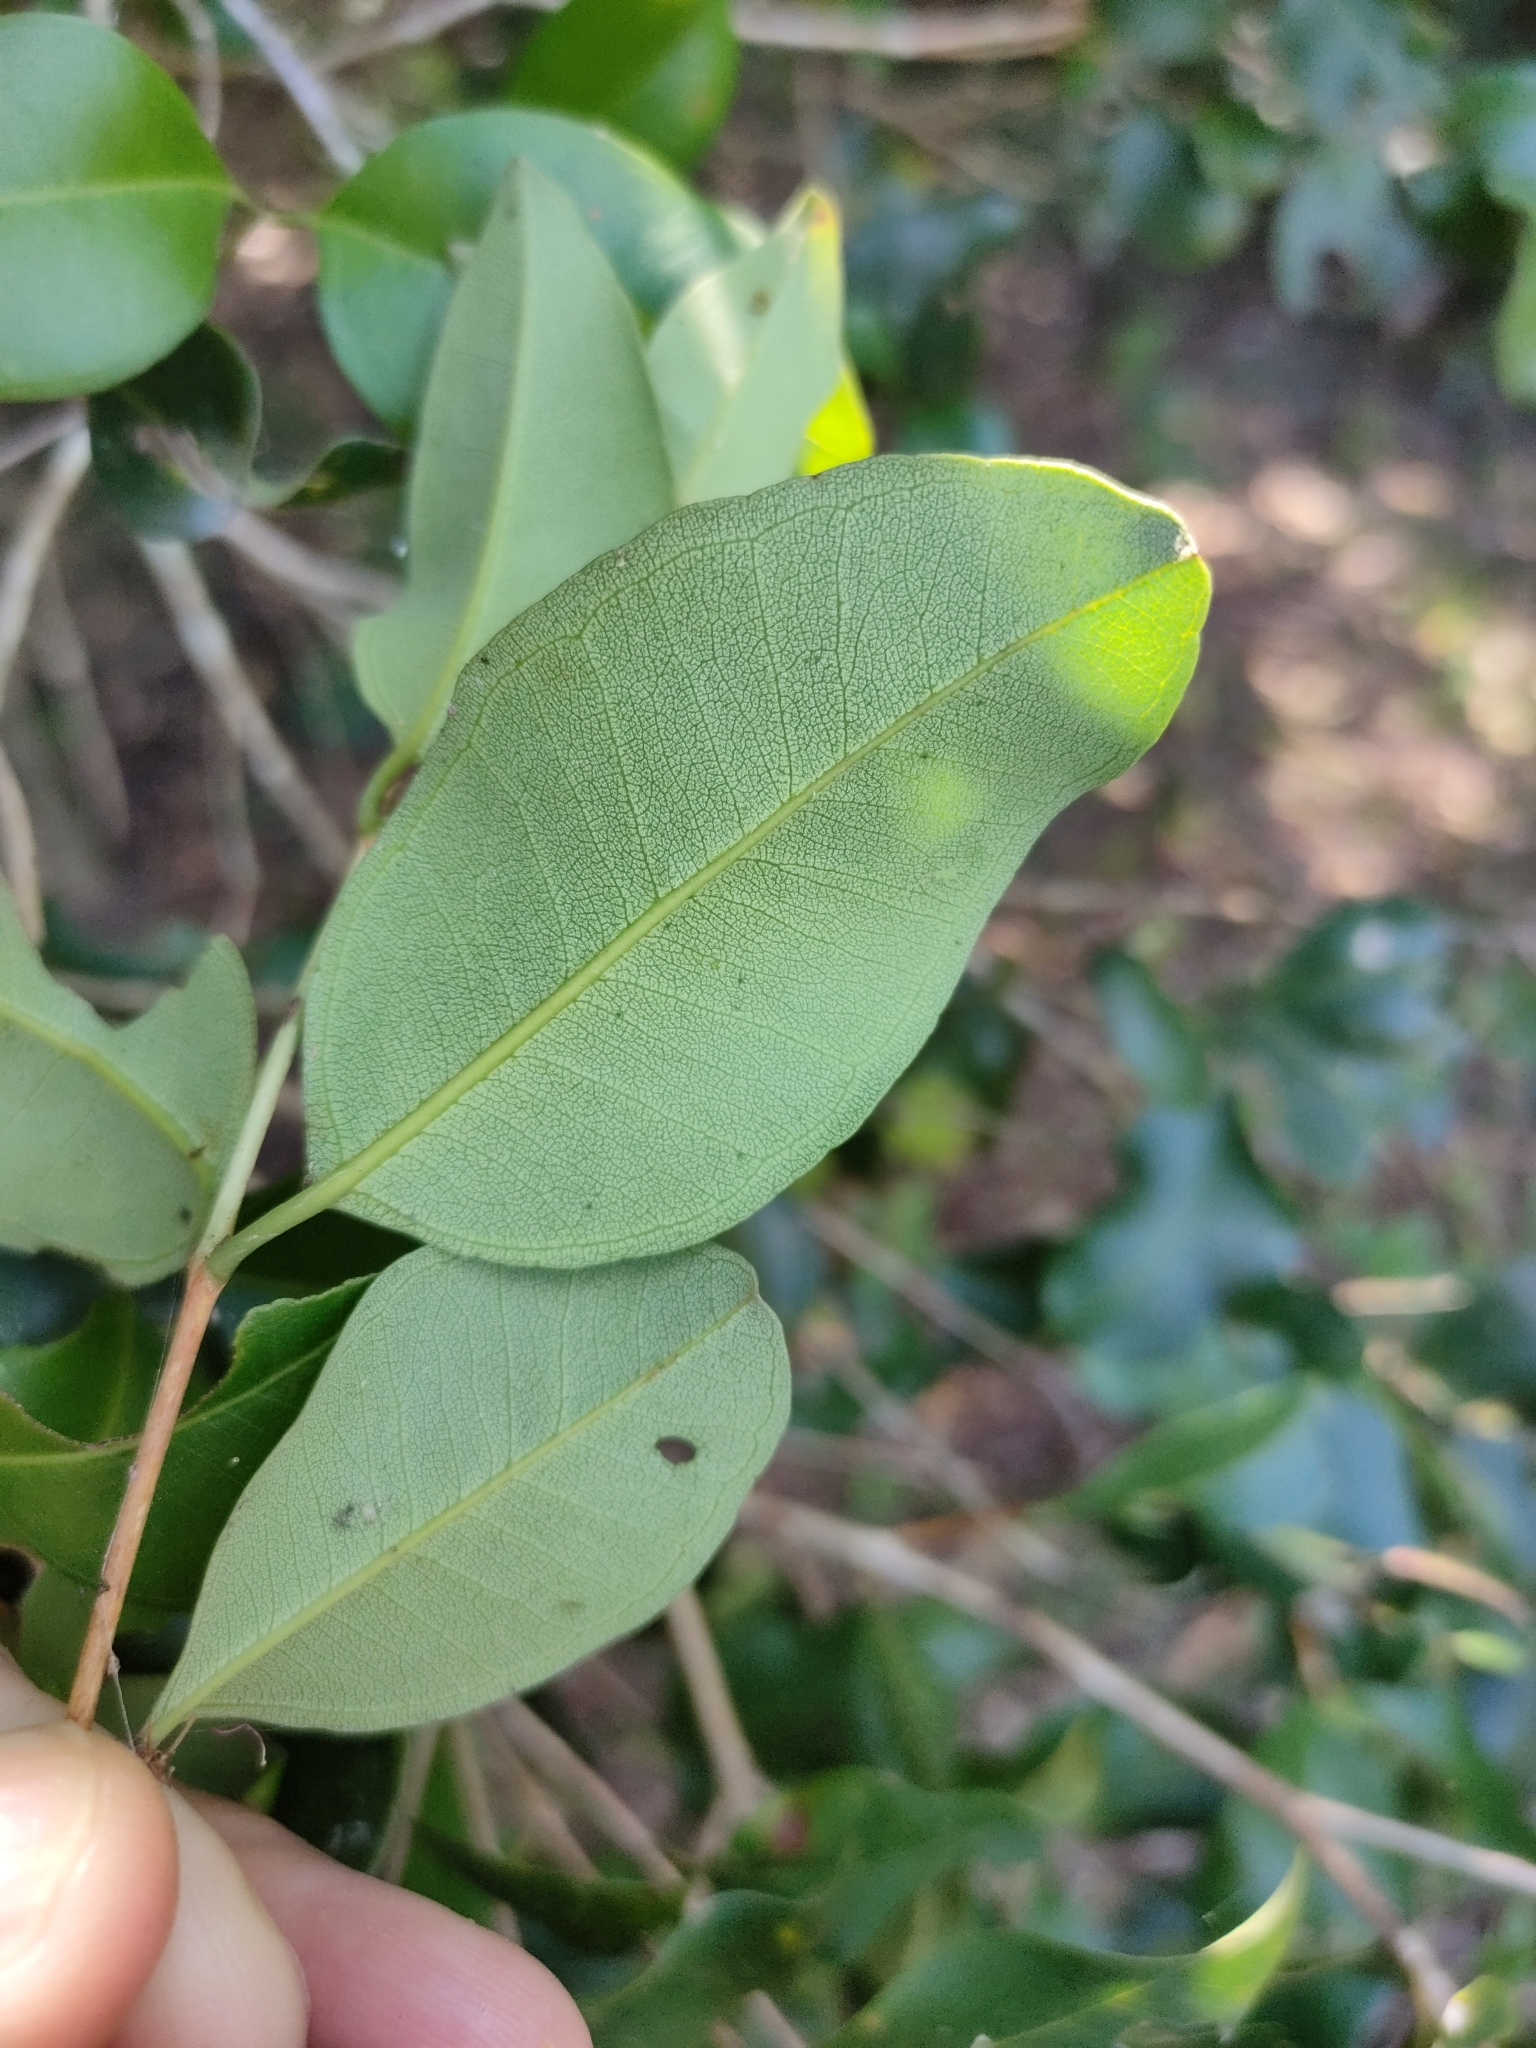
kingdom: Plantae
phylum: Tracheophyta
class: Magnoliopsida
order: Myrtales
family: Myrtaceae
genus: Rhodamnia
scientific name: Rhodamnia dumicola
